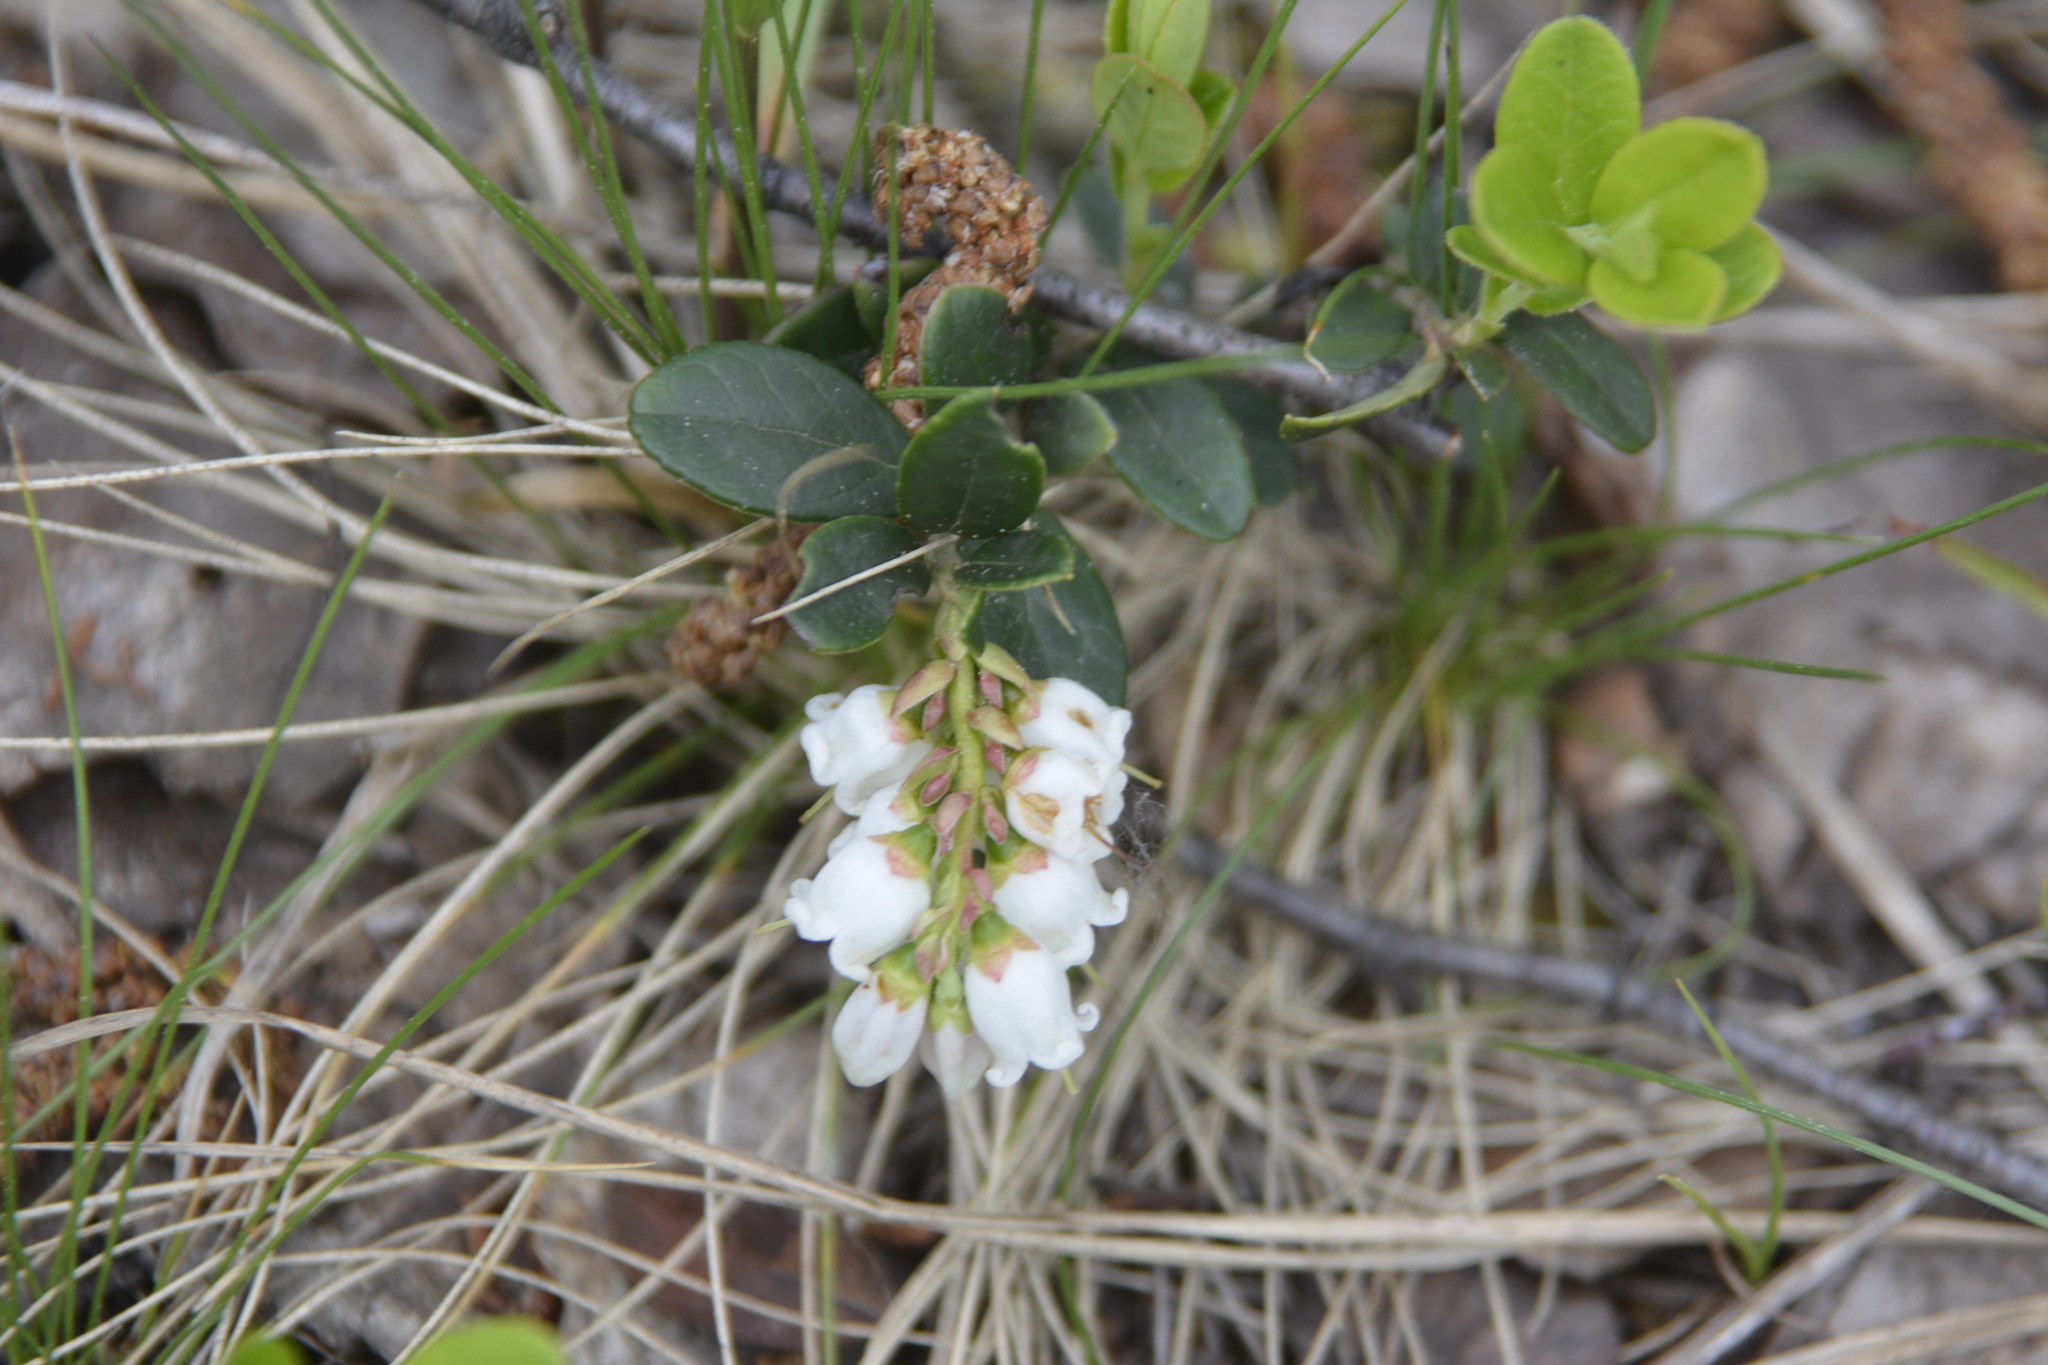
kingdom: Plantae
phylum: Tracheophyta
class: Magnoliopsida
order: Ericales
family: Ericaceae
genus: Vaccinium
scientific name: Vaccinium vitis-idaea
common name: Cowberry
